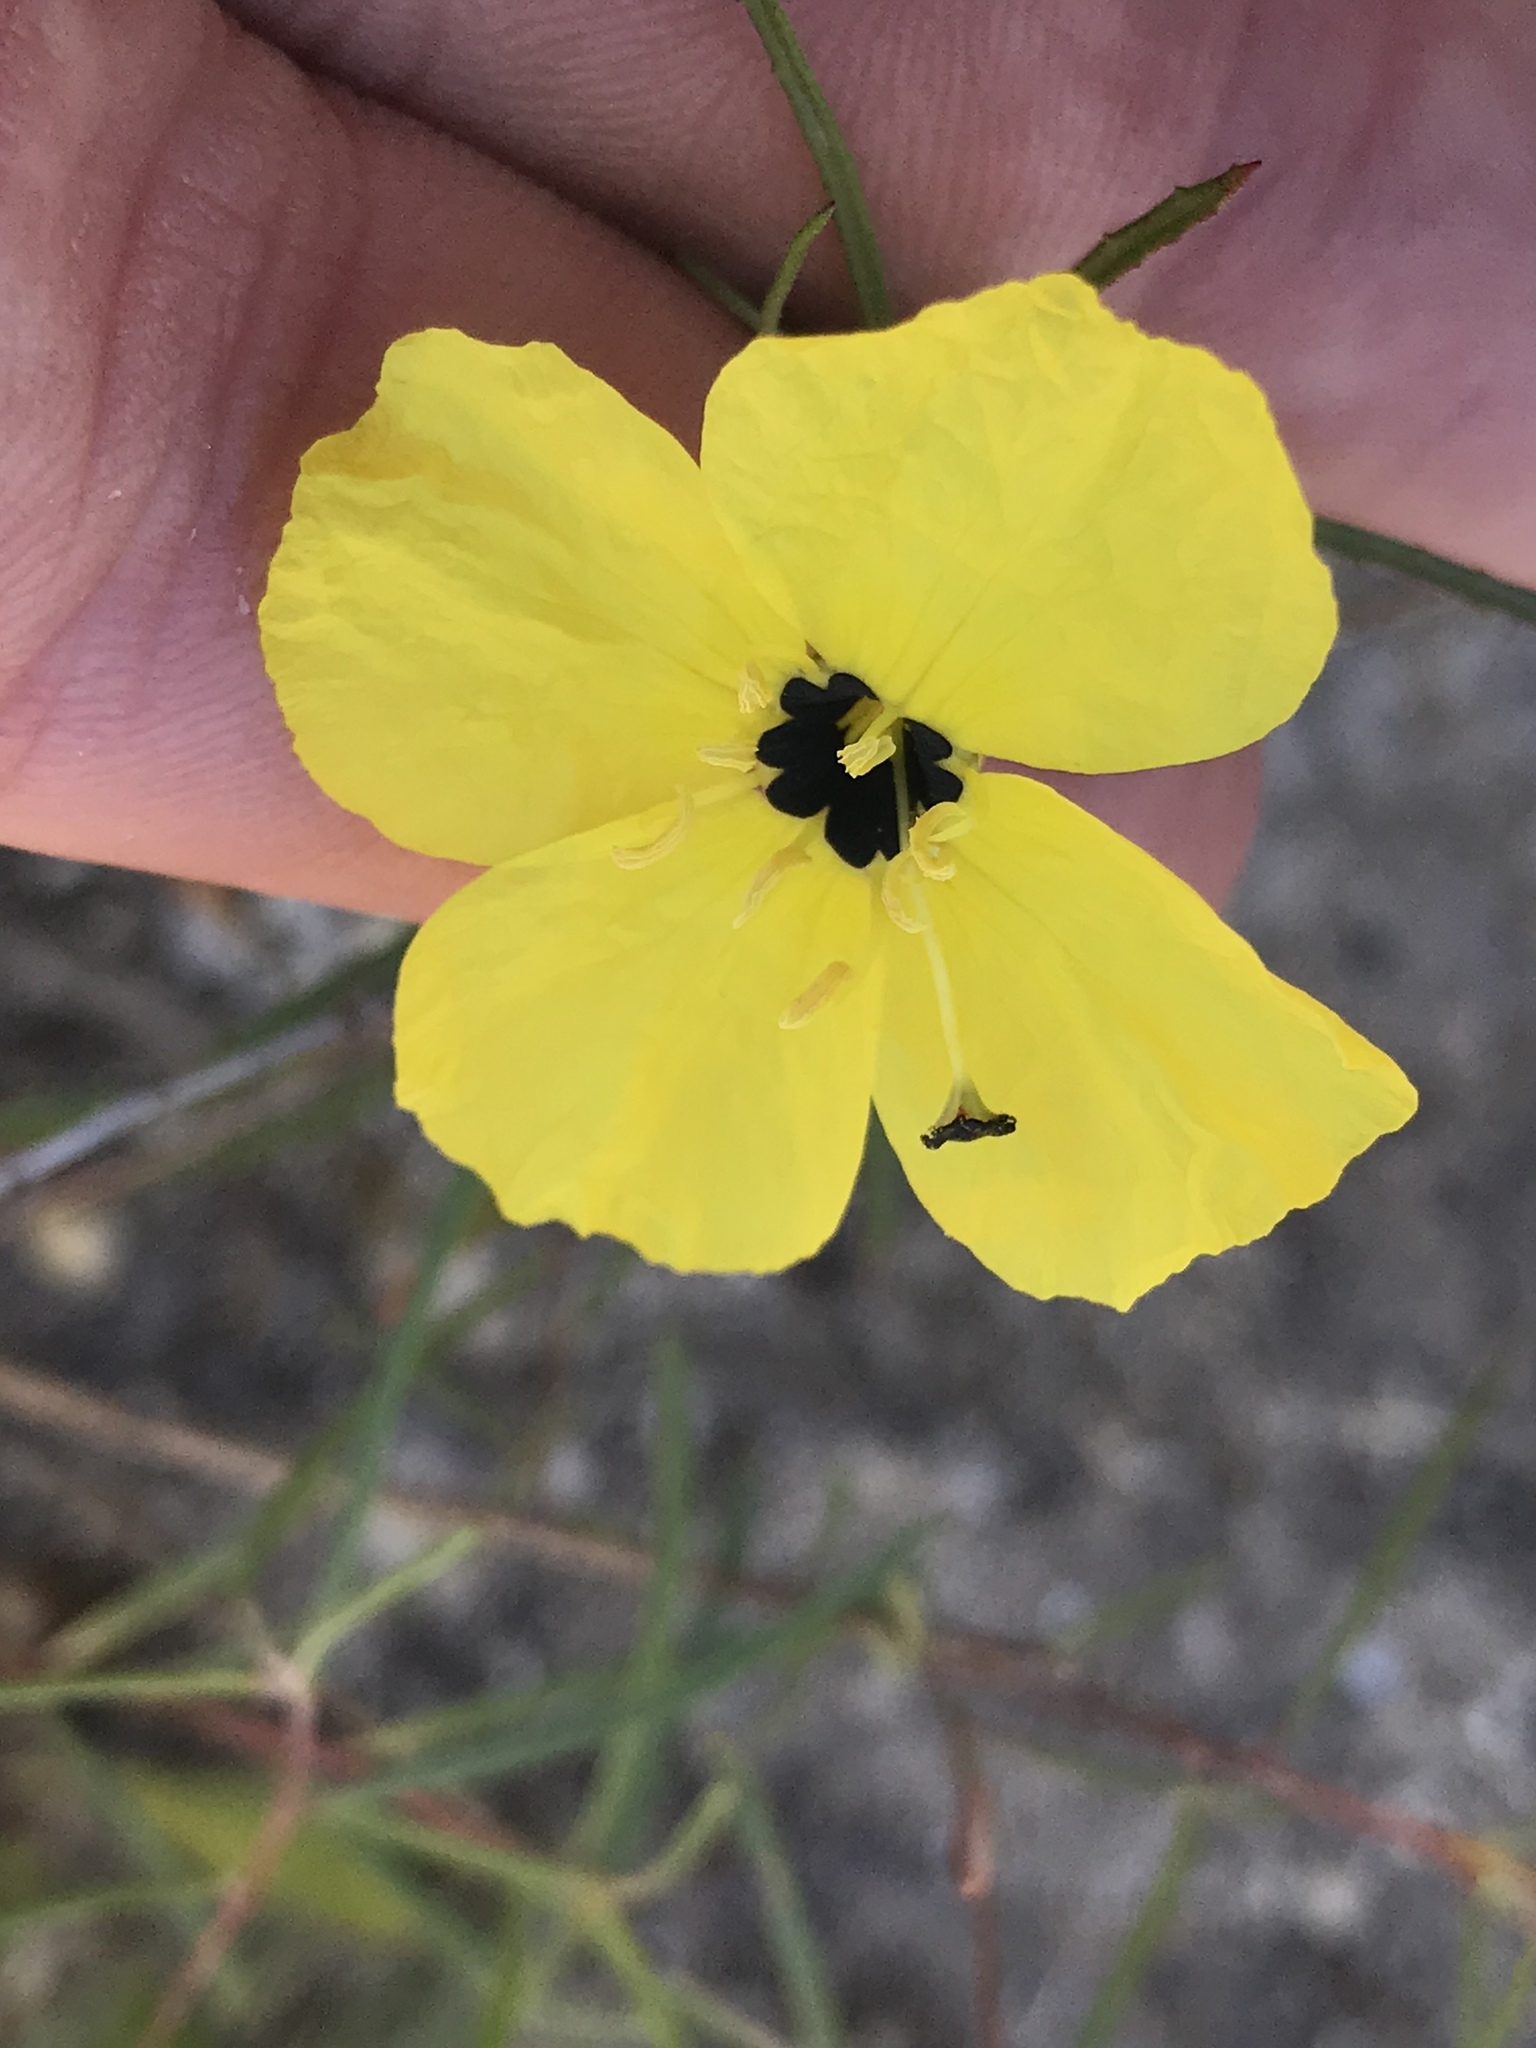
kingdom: Plantae
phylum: Tracheophyta
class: Magnoliopsida
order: Myrtales
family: Onagraceae
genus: Oenothera
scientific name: Oenothera
